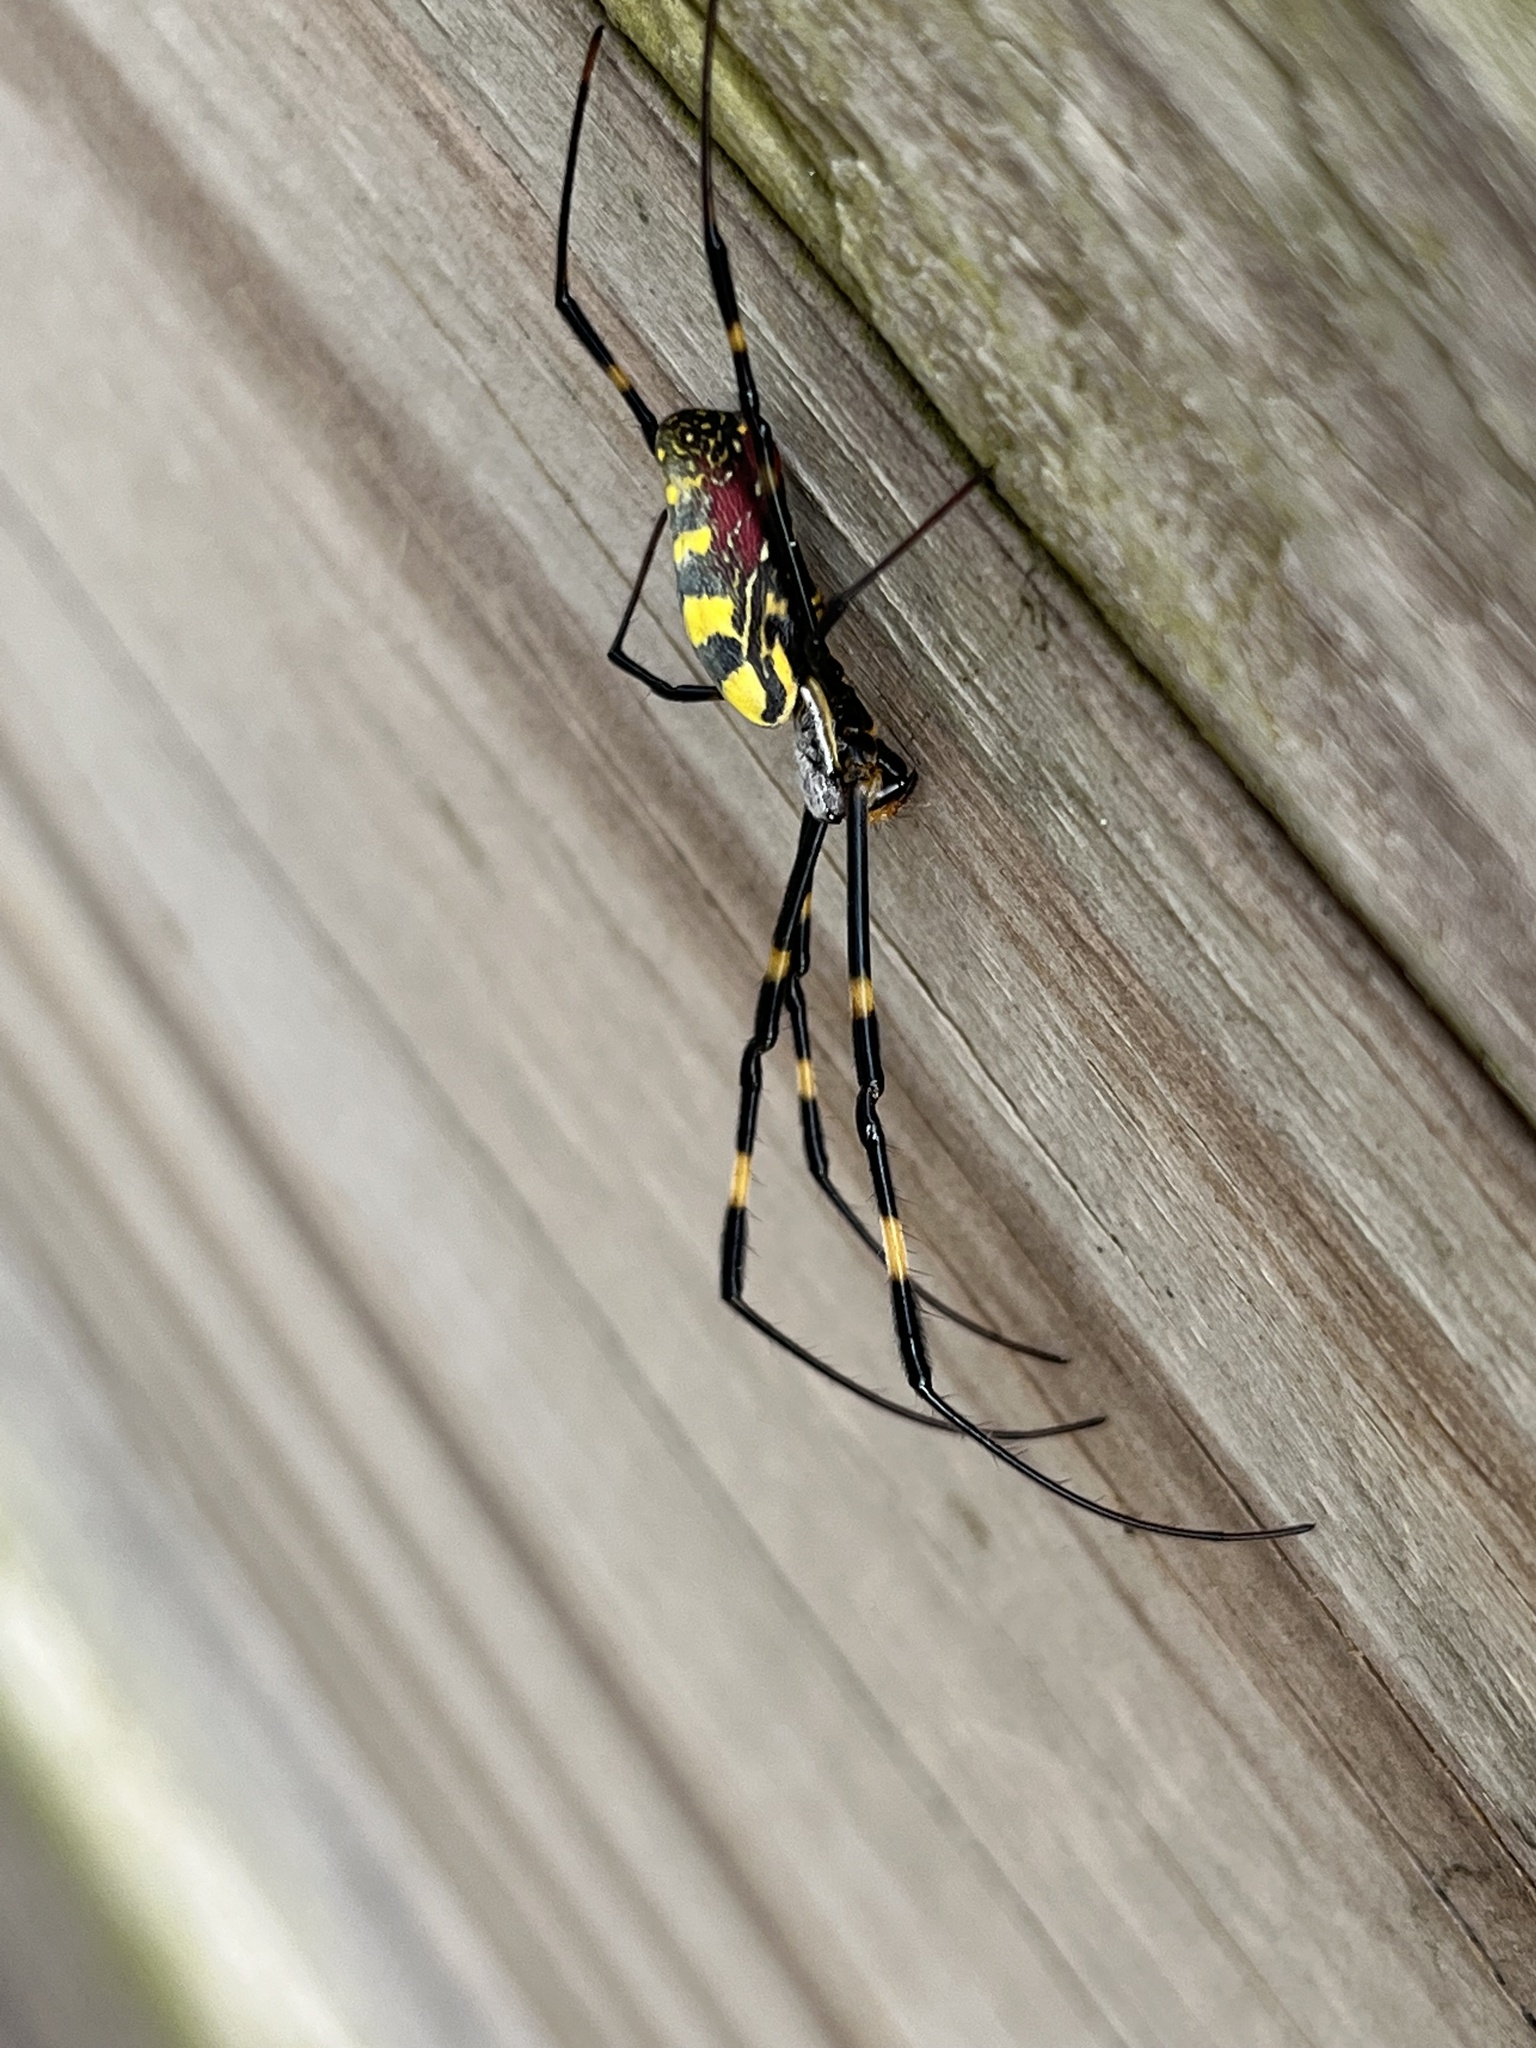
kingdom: Animalia
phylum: Arthropoda
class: Arachnida
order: Araneae
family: Araneidae
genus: Trichonephila
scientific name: Trichonephila clavata
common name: Jorō spider
